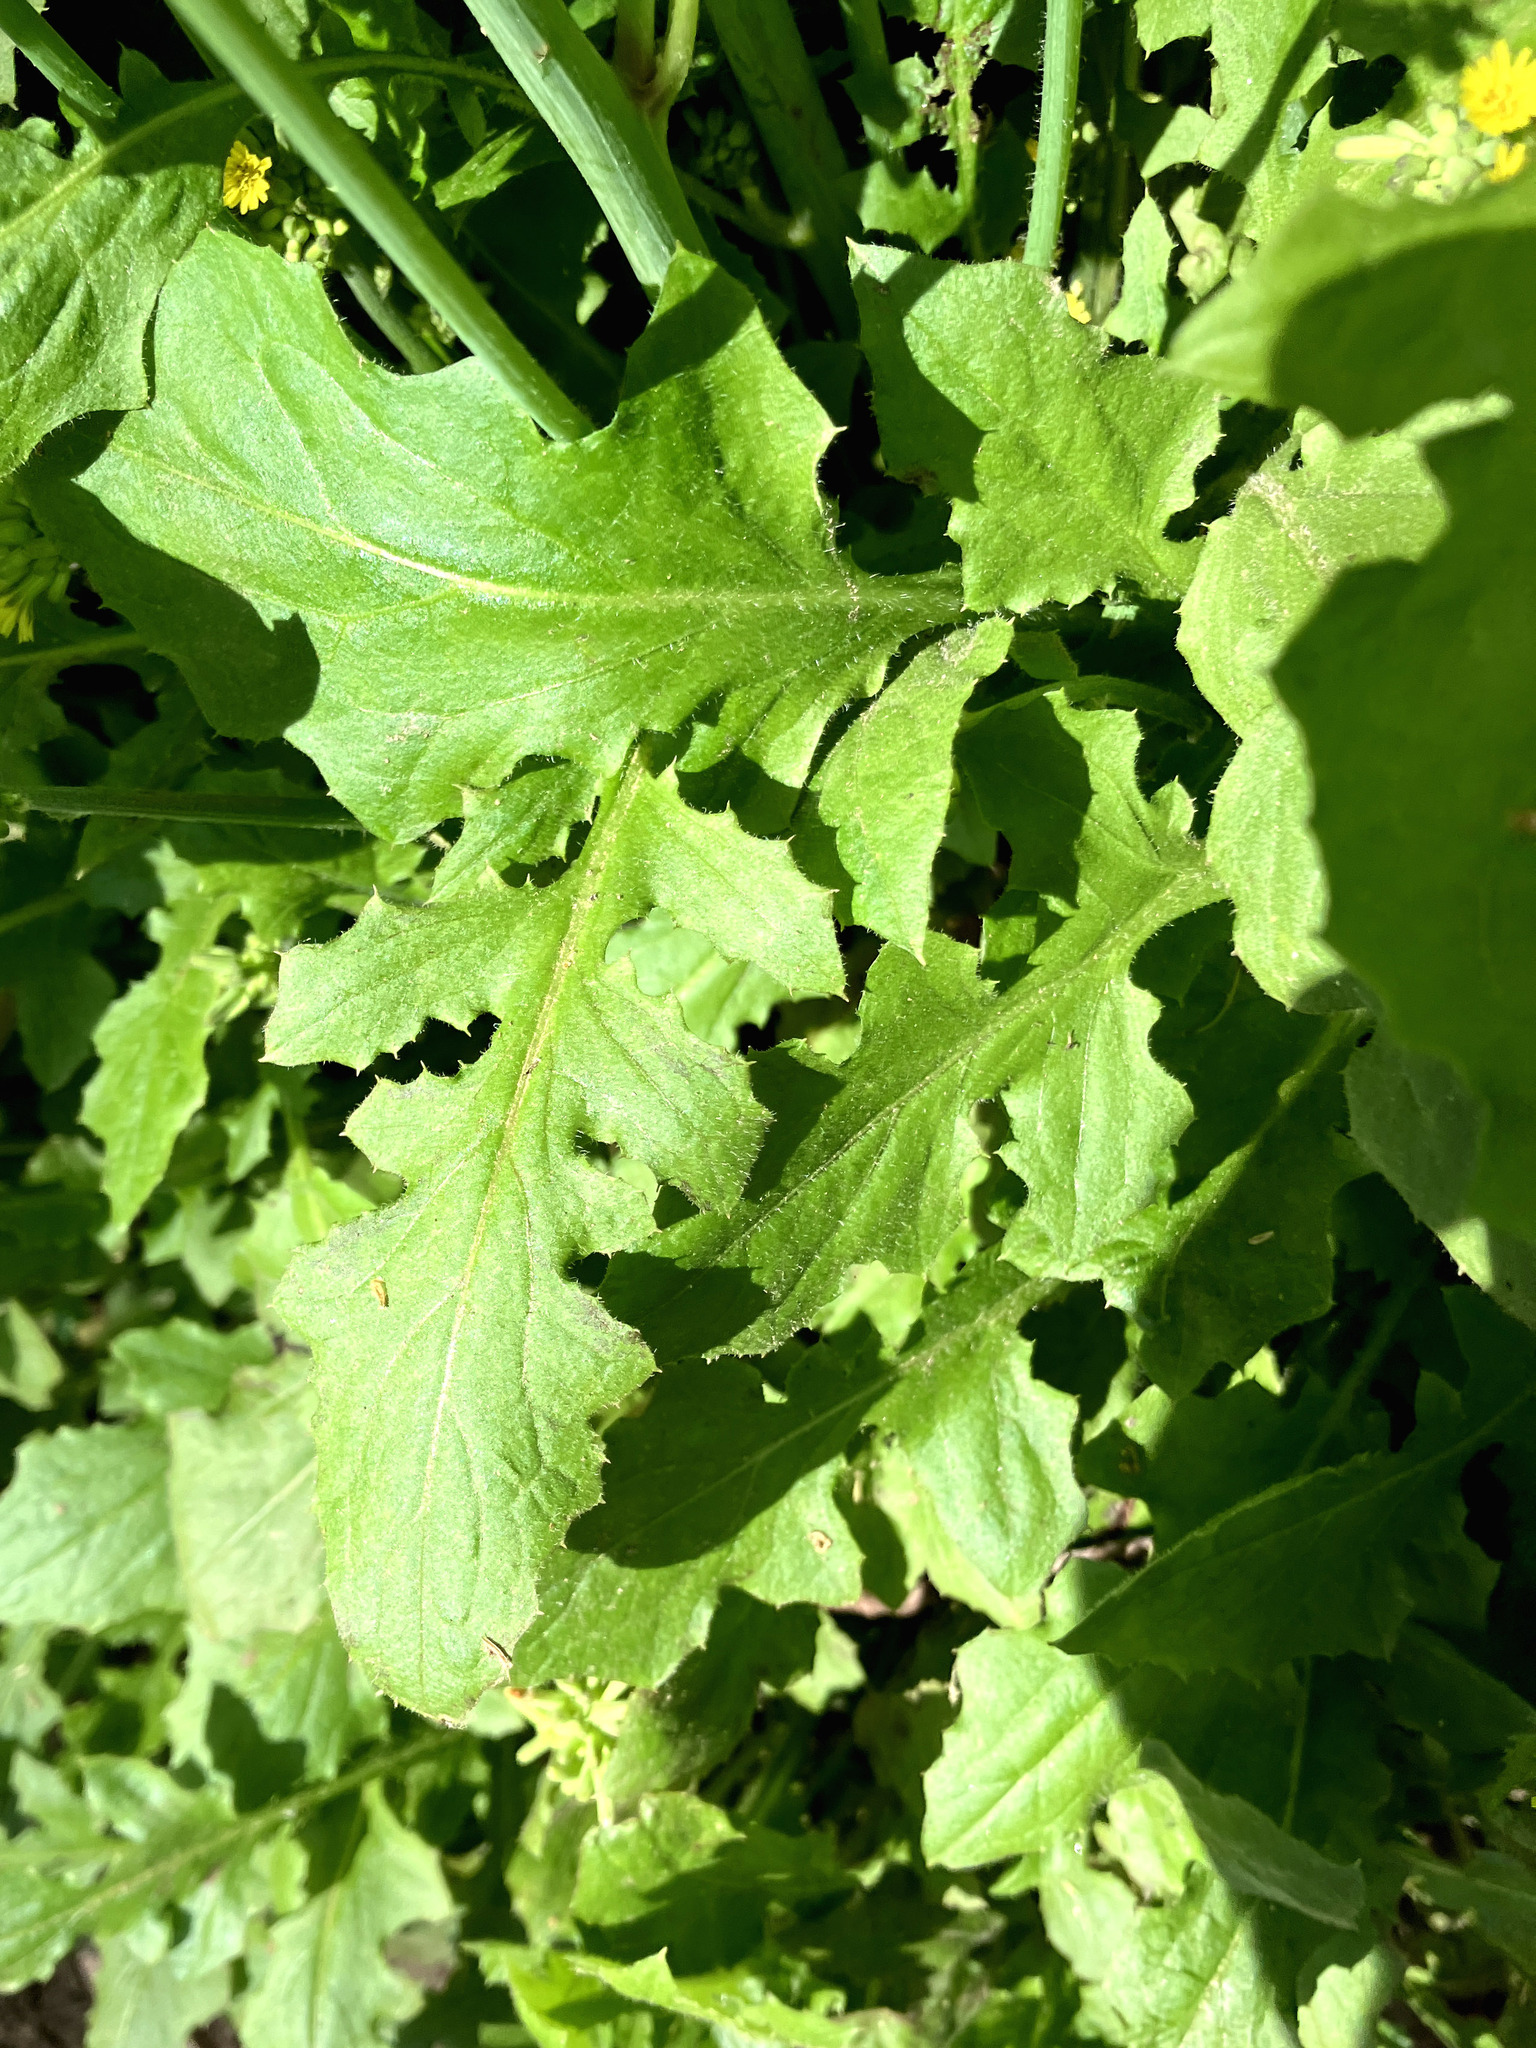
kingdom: Plantae
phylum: Tracheophyta
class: Magnoliopsida
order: Asterales
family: Asteraceae
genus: Youngia
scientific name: Youngia japonica
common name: Oriental false hawksbeard
